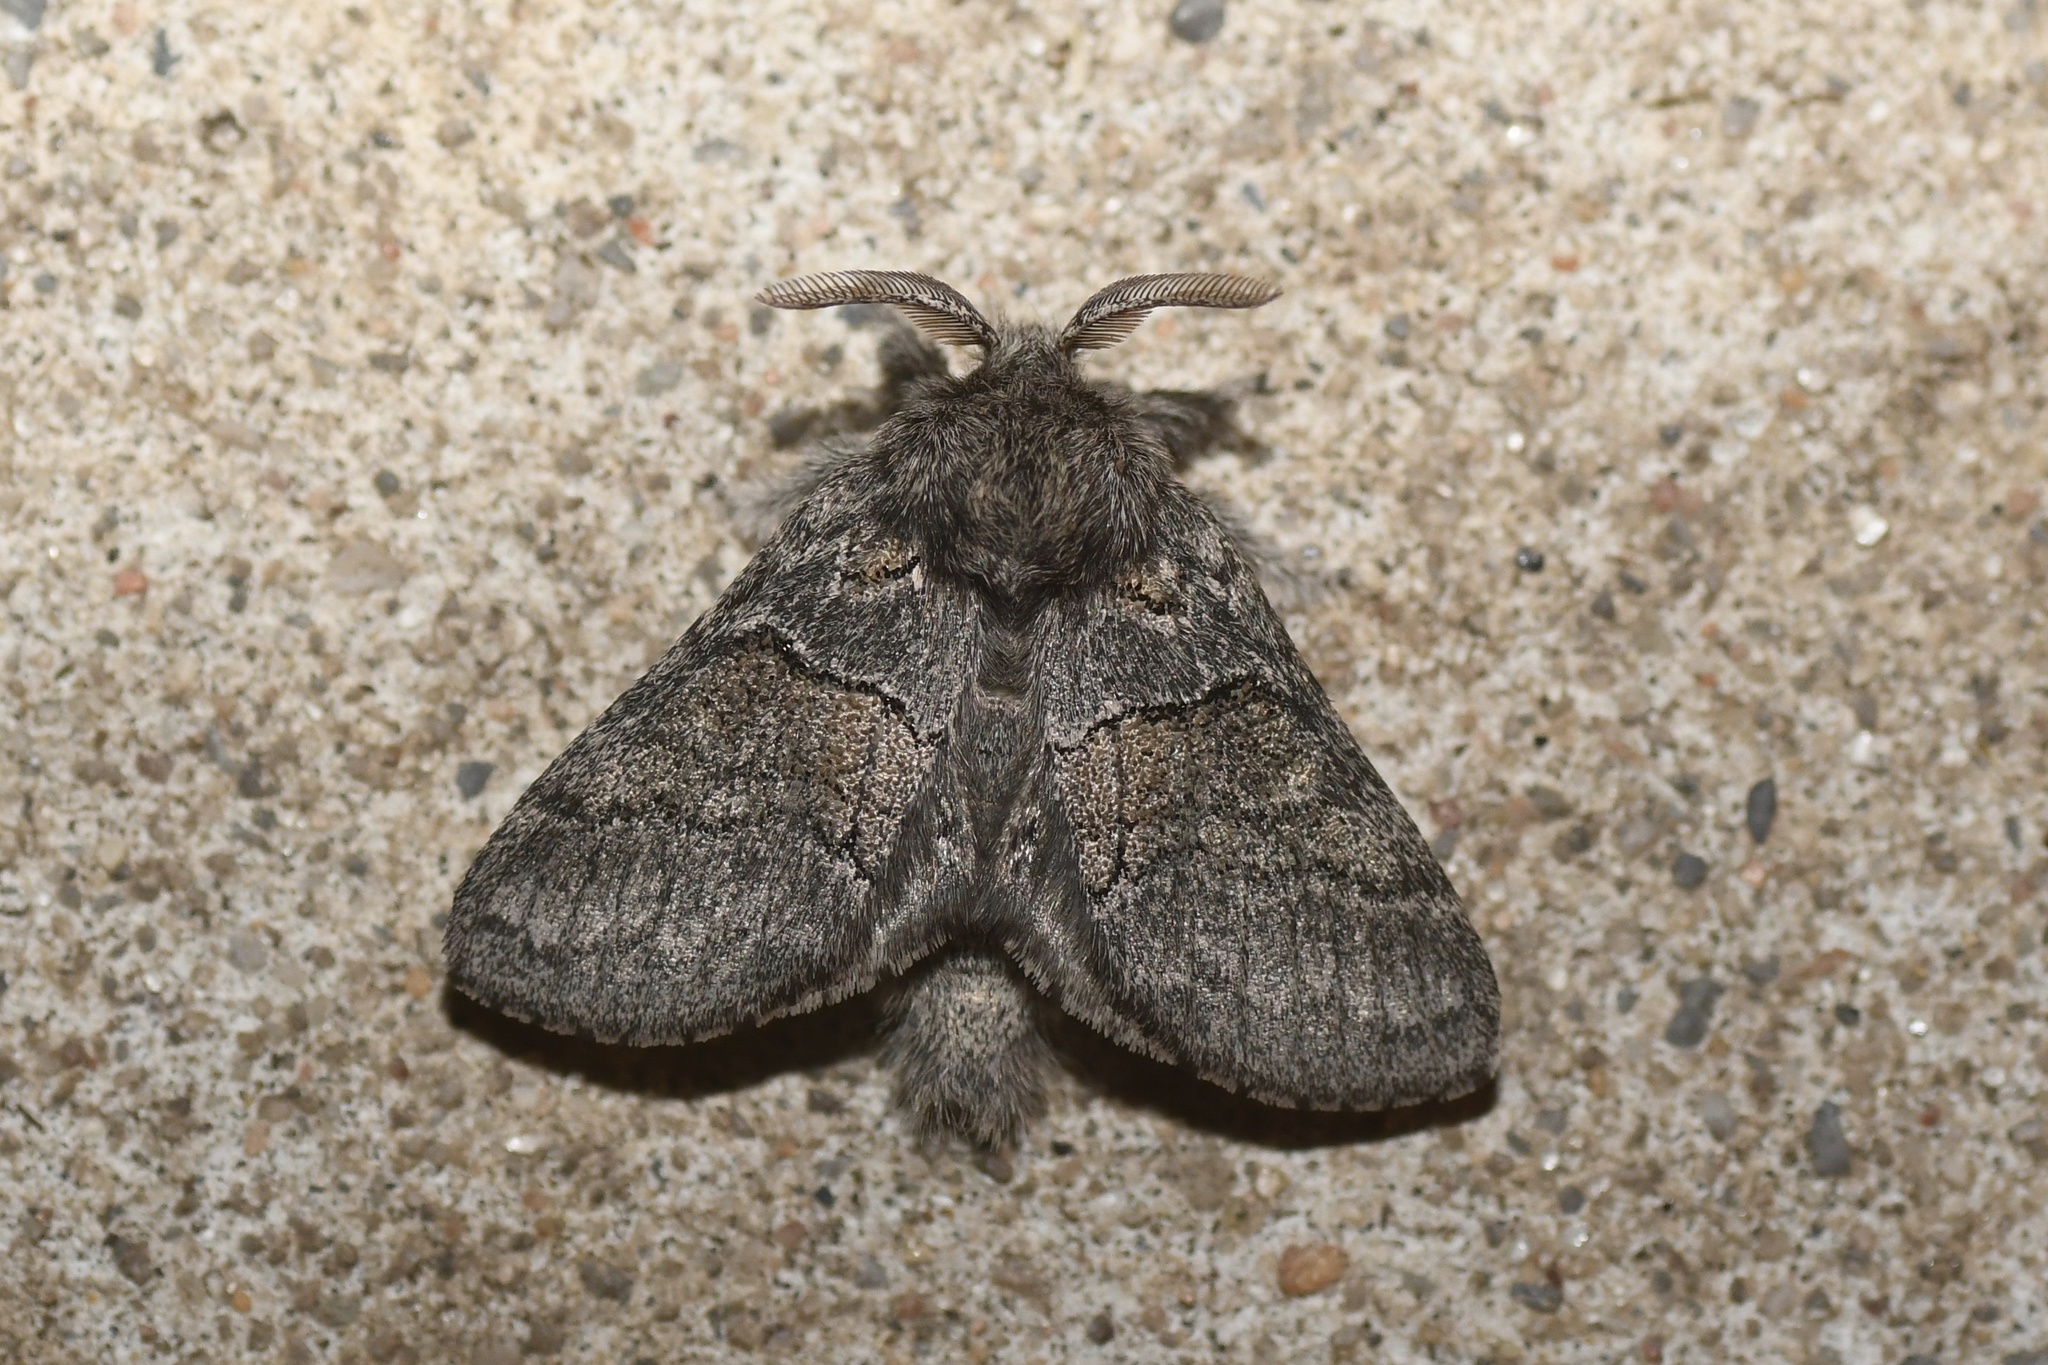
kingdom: Animalia
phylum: Arthropoda
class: Insecta
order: Lepidoptera
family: Notodontidae
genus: Gluphisia
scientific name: Gluphisia septentrionis
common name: Common gluphisia
